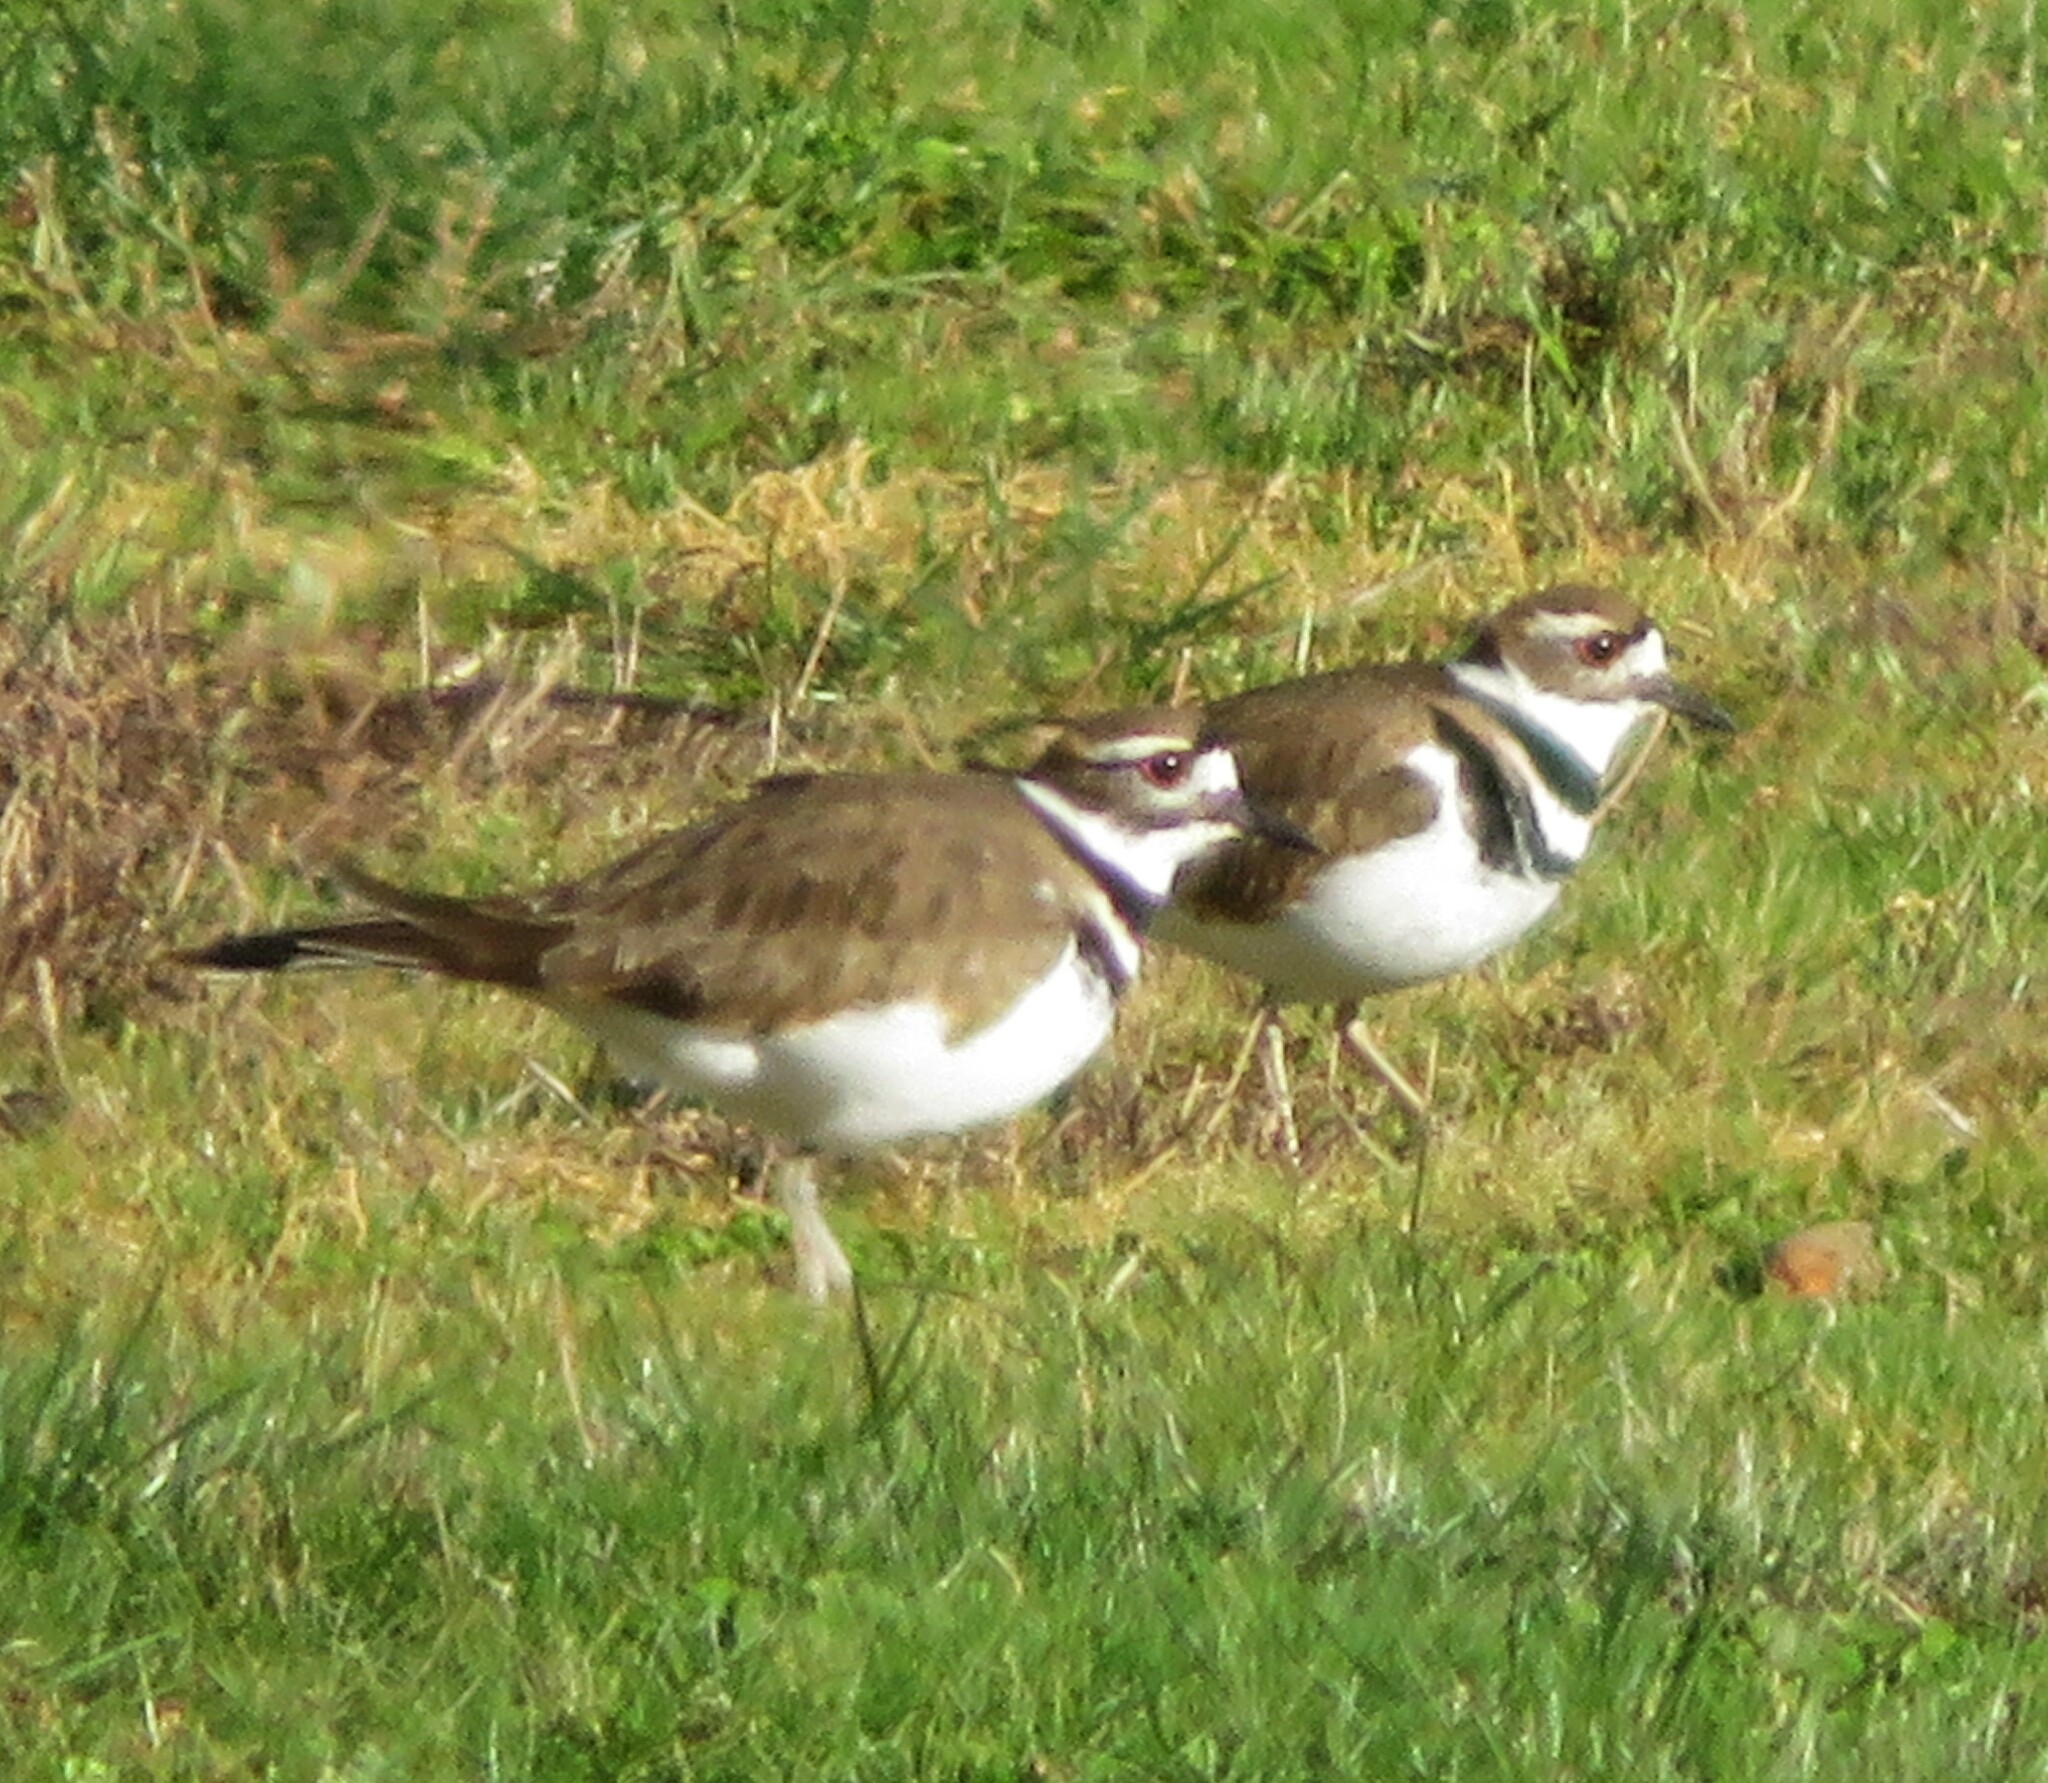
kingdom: Animalia
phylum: Chordata
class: Aves
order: Charadriiformes
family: Charadriidae
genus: Charadrius
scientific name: Charadrius vociferus
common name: Killdeer
